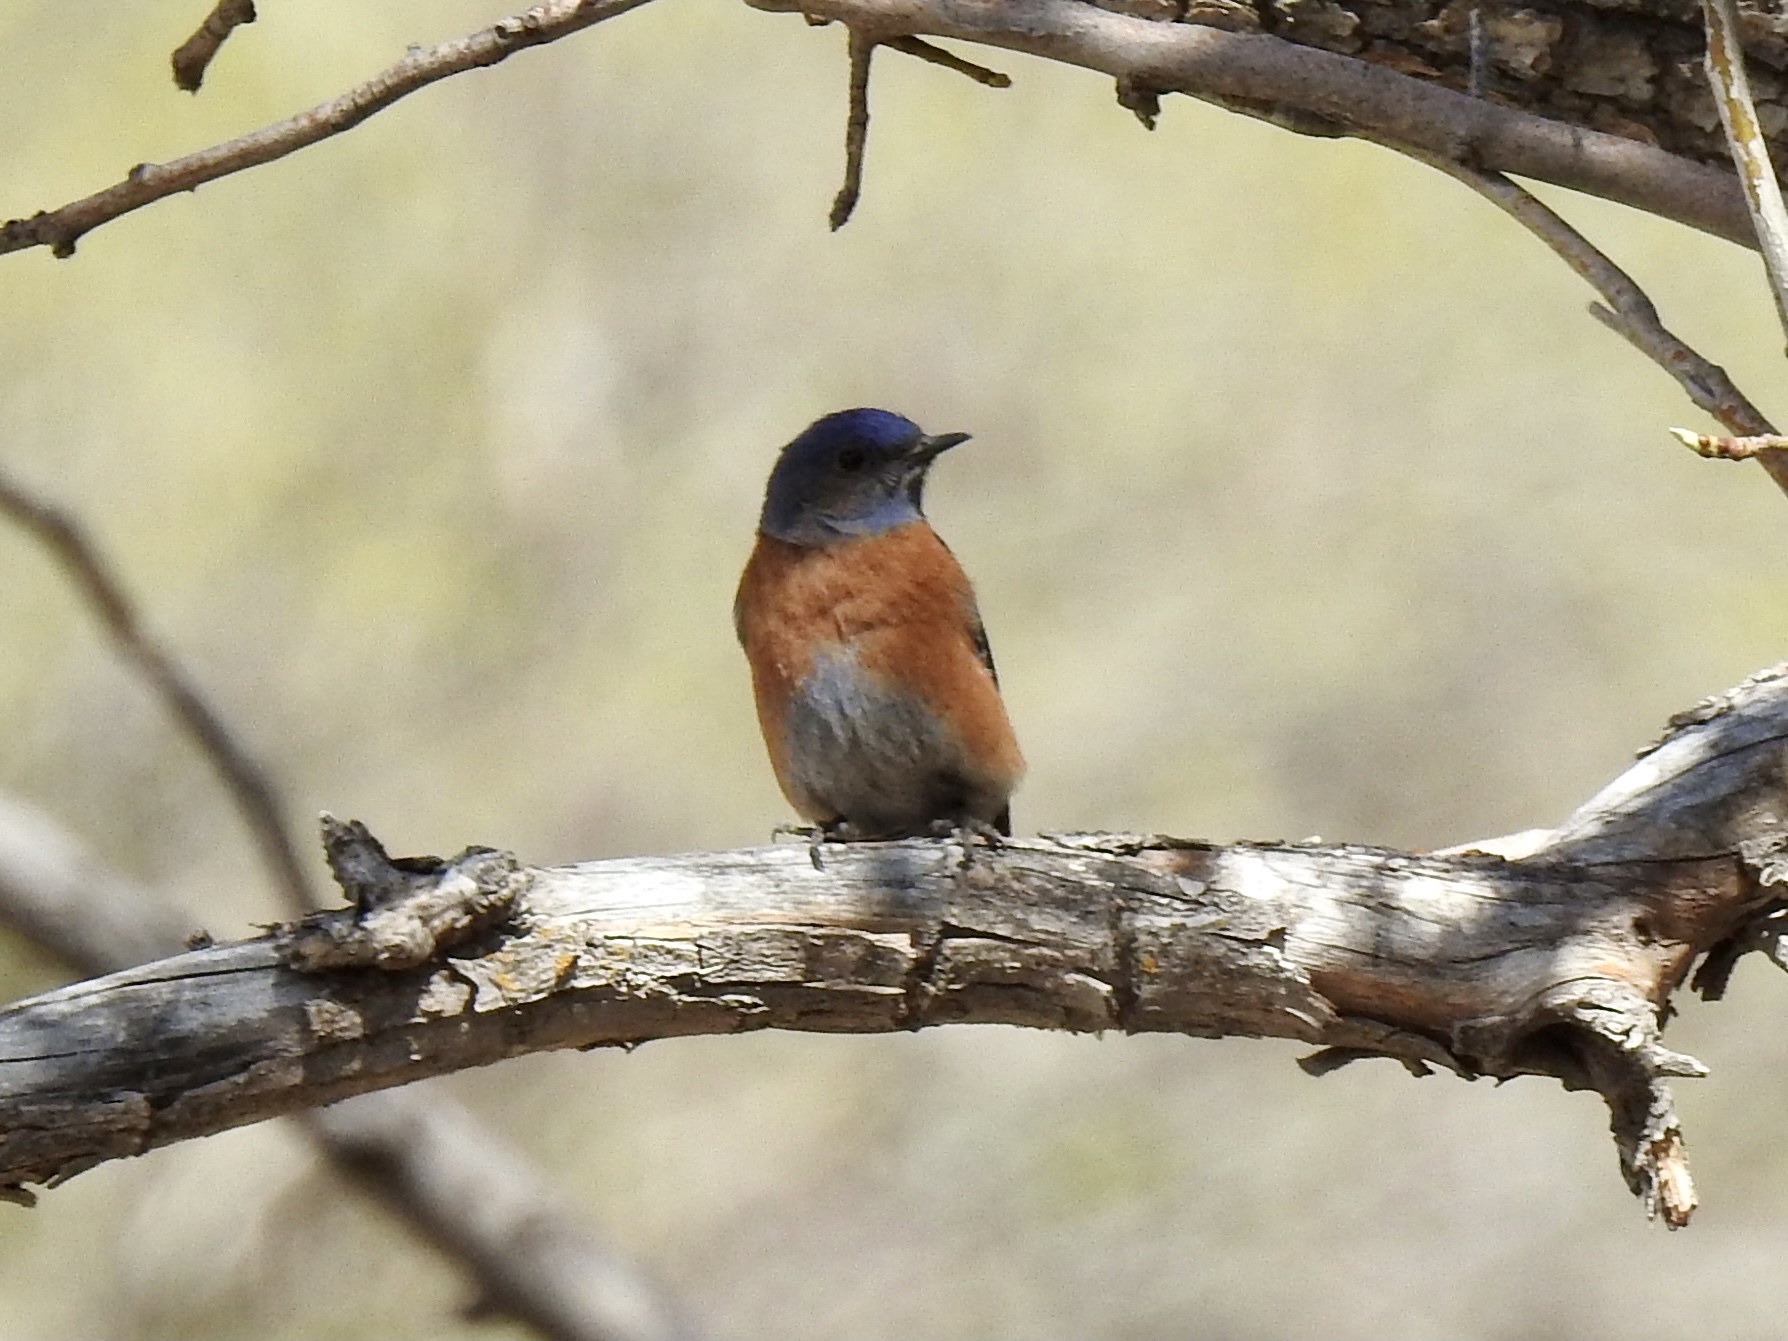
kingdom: Animalia
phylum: Chordata
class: Aves
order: Passeriformes
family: Turdidae
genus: Sialia
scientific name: Sialia mexicana
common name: Western bluebird
